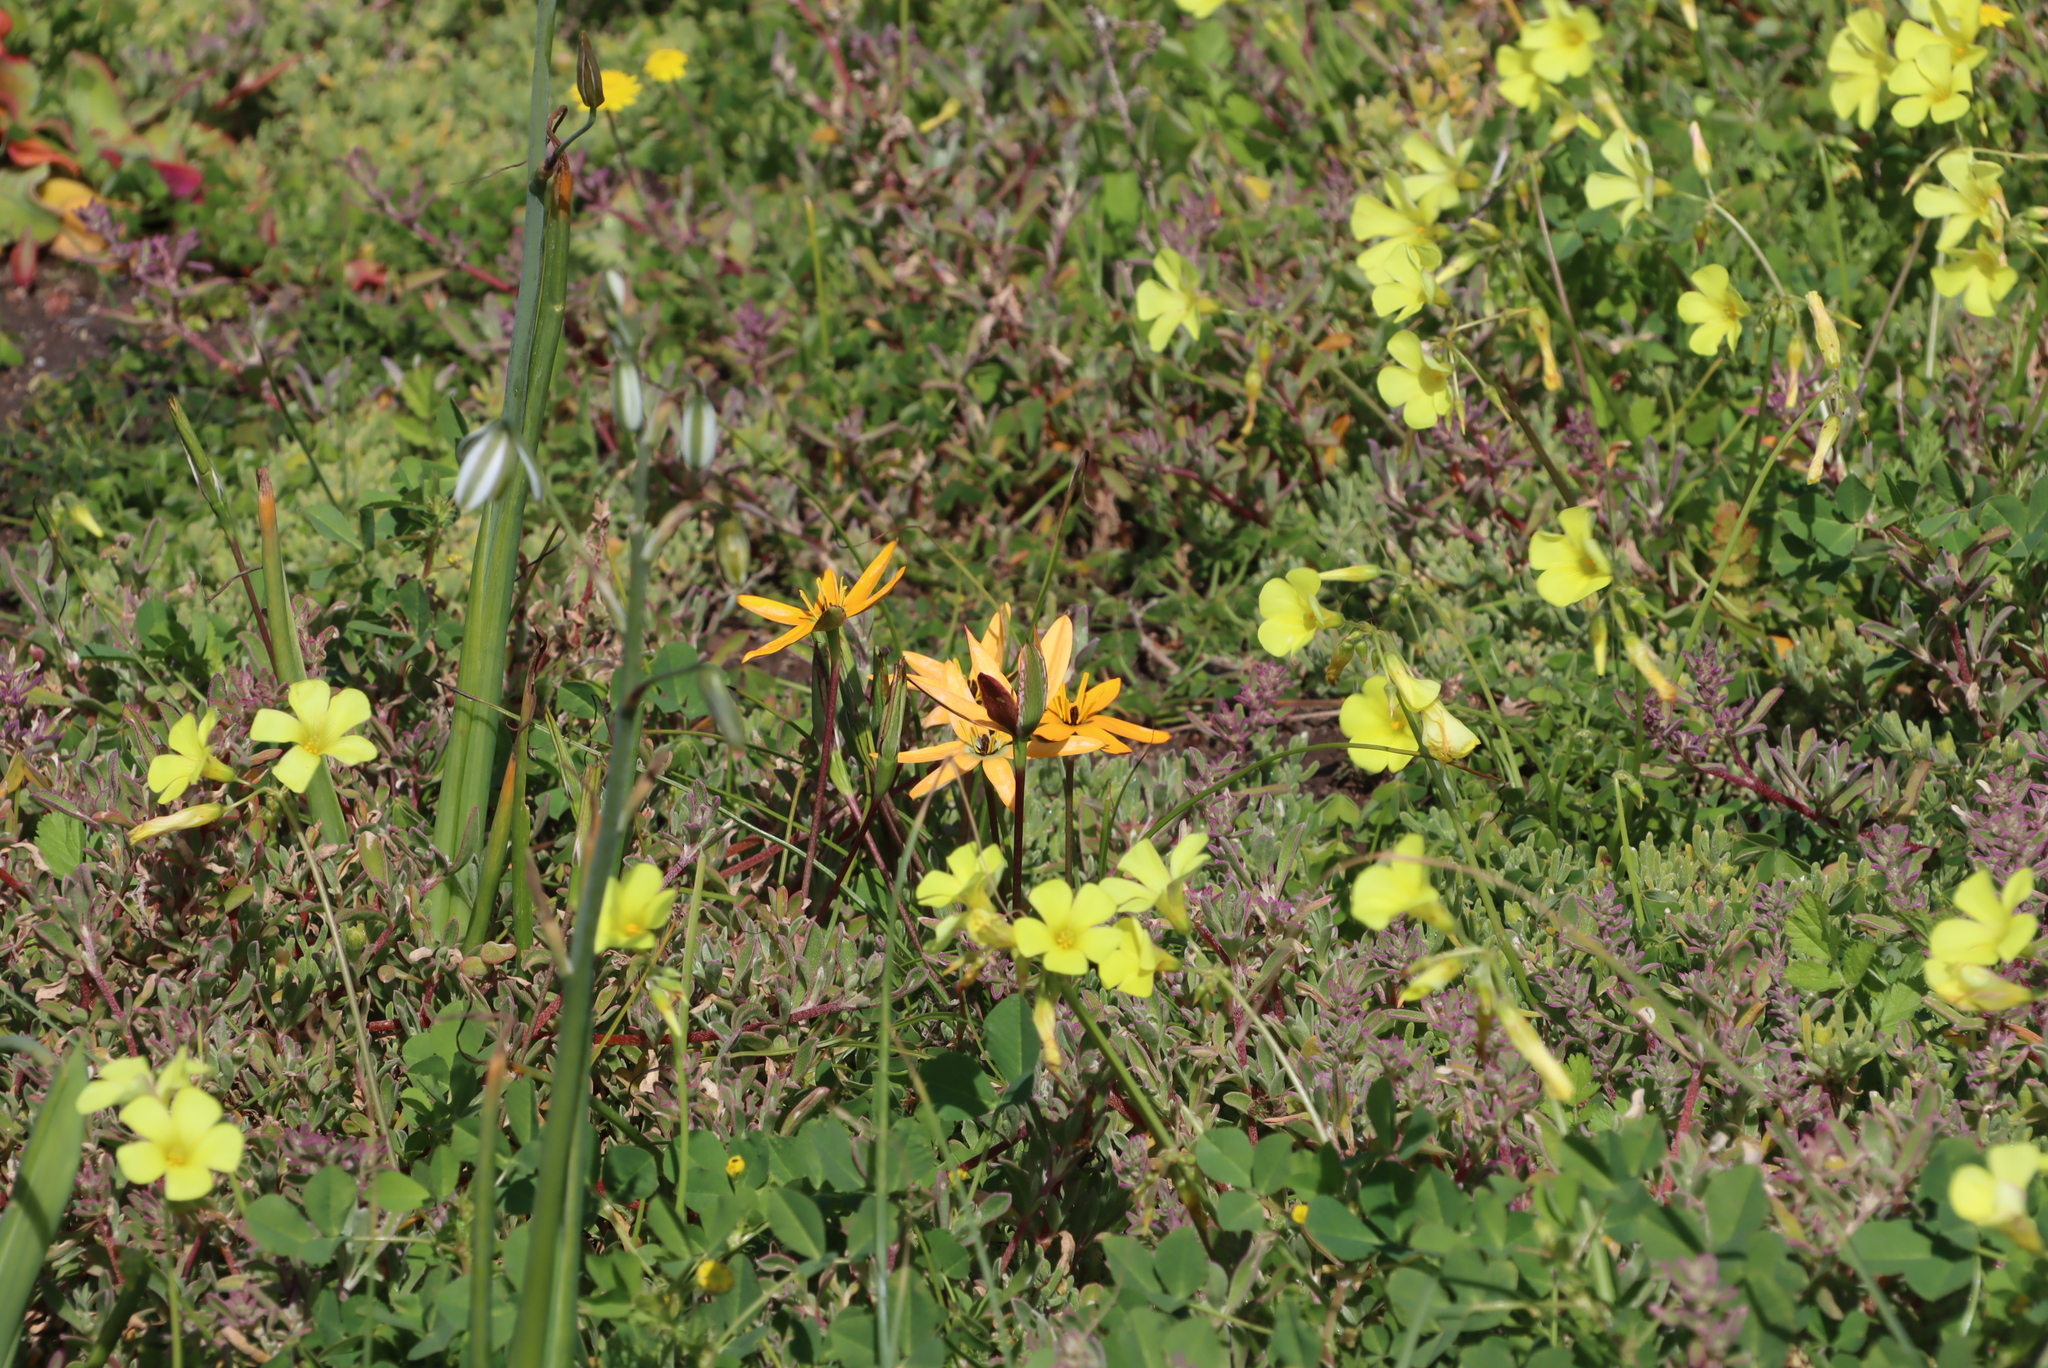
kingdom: Plantae
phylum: Tracheophyta
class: Magnoliopsida
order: Oxalidales
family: Oxalidaceae
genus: Oxalis
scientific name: Oxalis pes-caprae
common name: Bermuda-buttercup
